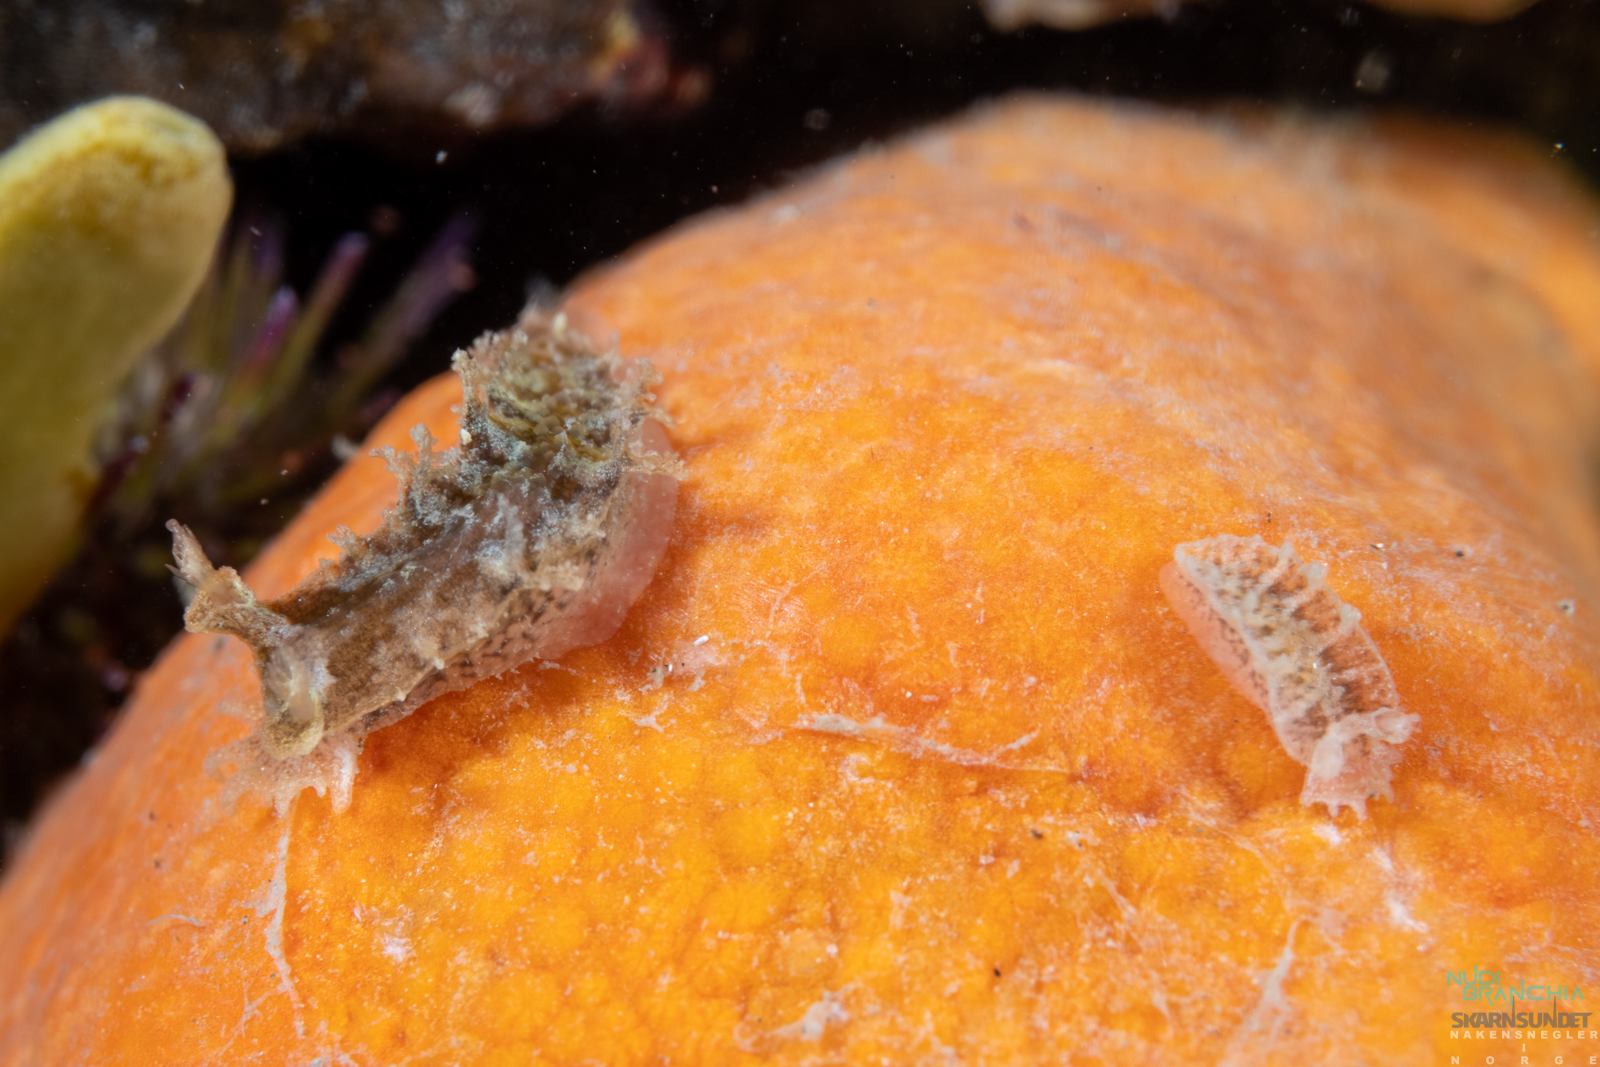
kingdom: Animalia
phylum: Mollusca
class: Gastropoda
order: Nudibranchia
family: Tritoniidae
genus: Duvaucelia
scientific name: Duvaucelia plebeia
